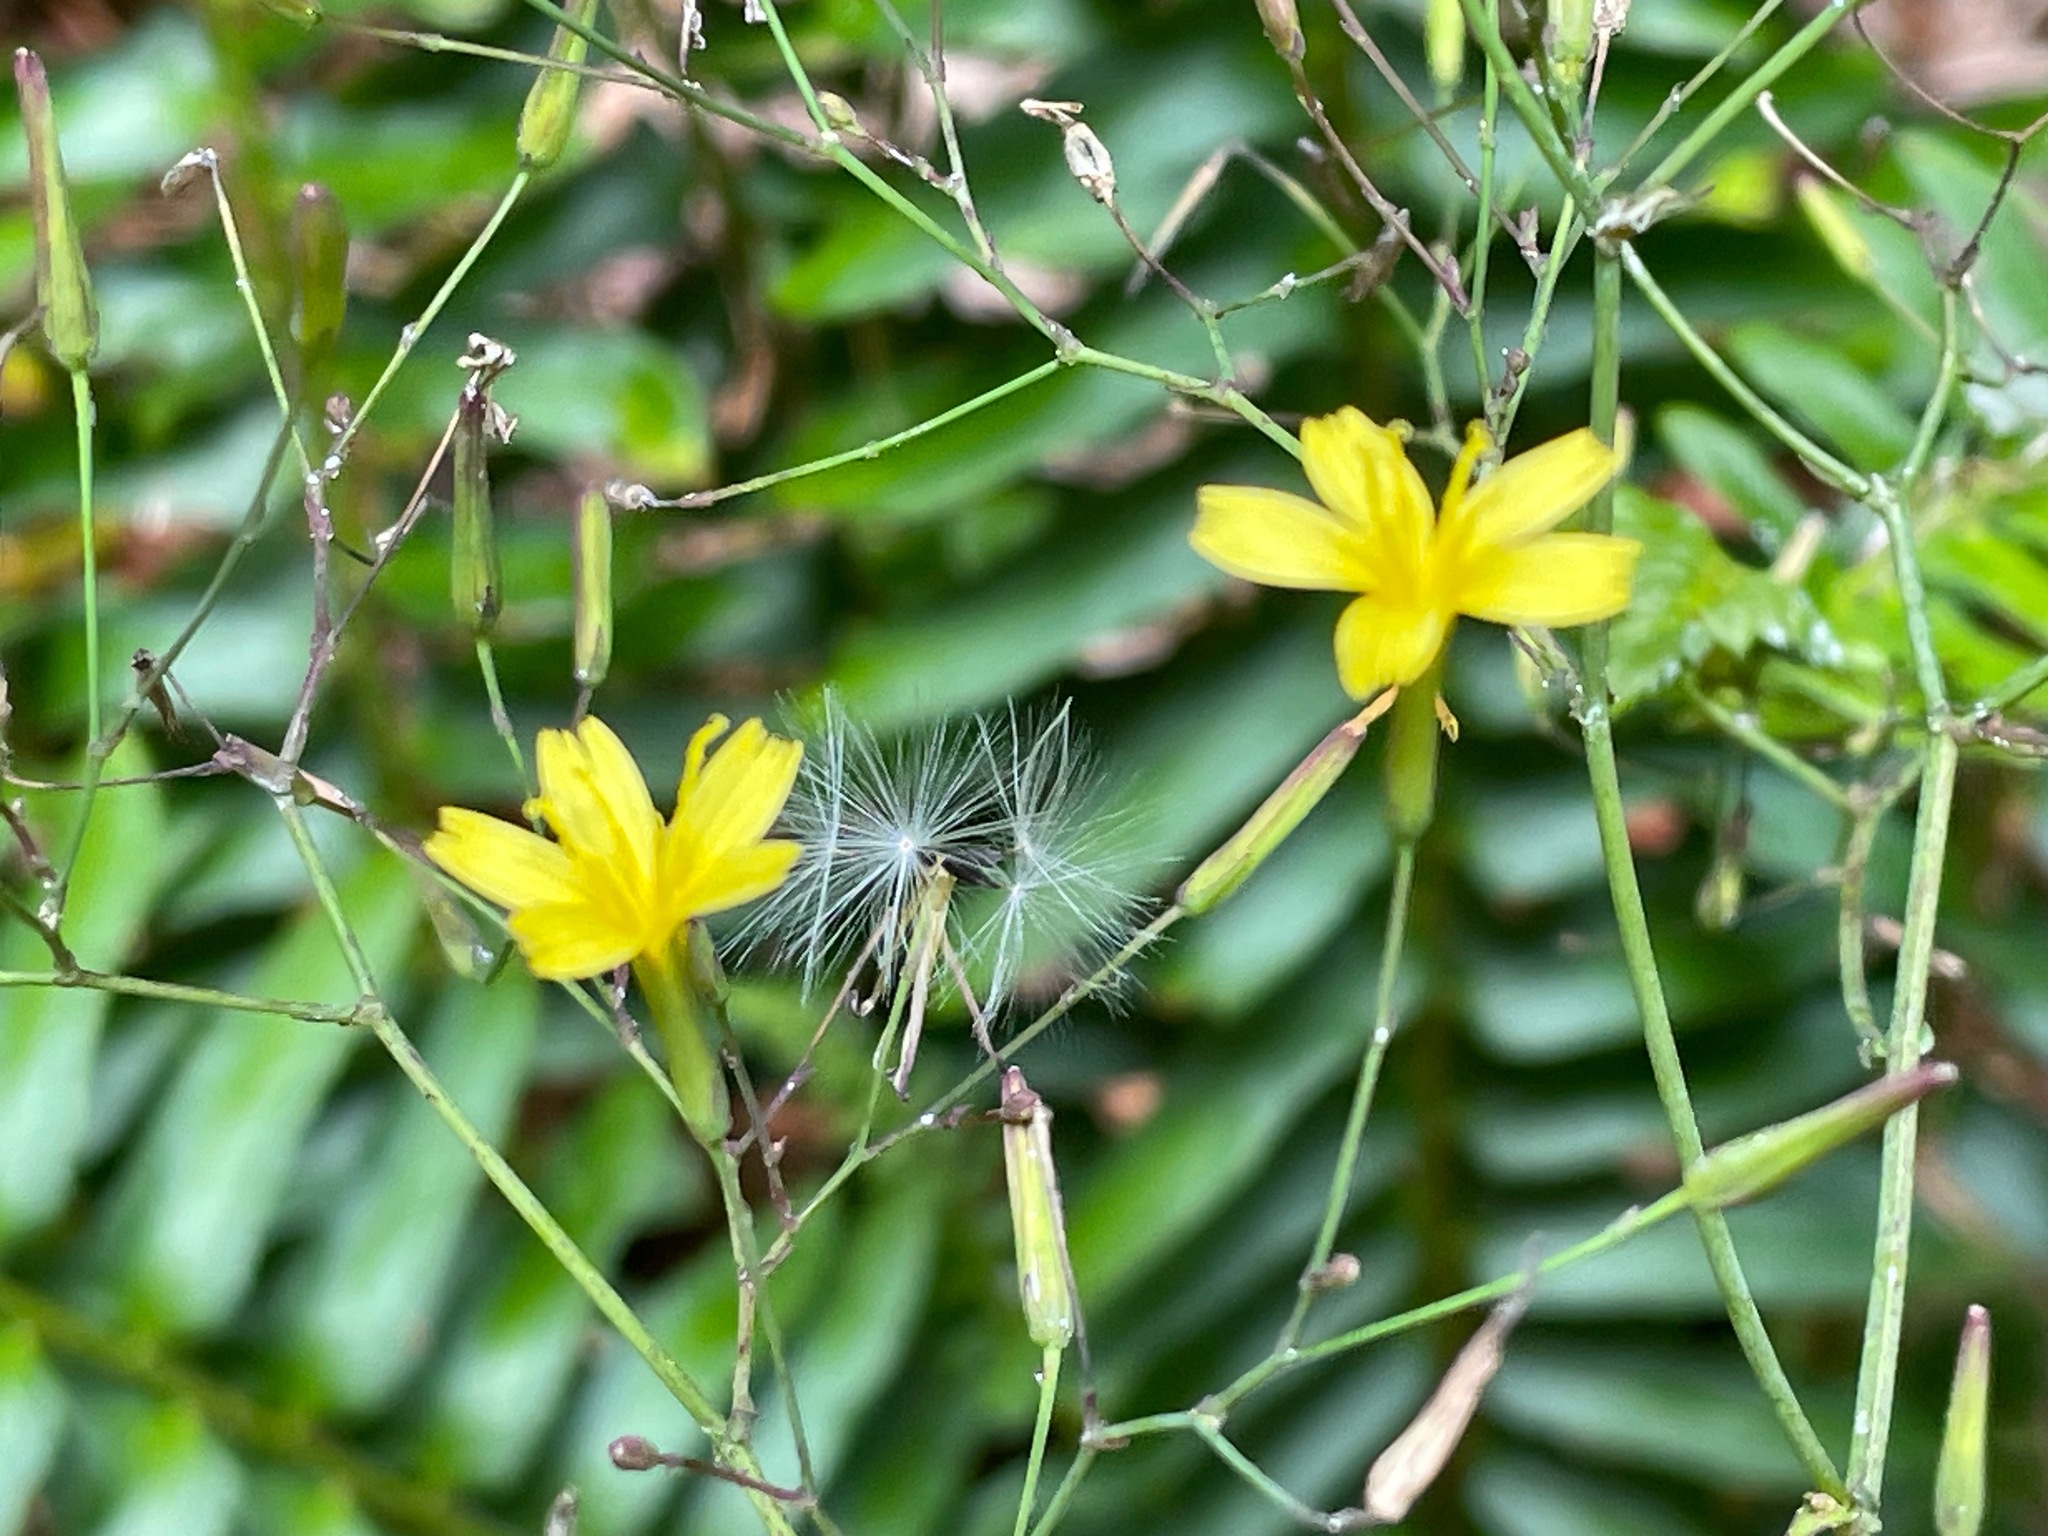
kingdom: Plantae
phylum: Tracheophyta
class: Magnoliopsida
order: Asterales
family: Asteraceae
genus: Mycelis
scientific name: Mycelis muralis
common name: Wall lettuce
